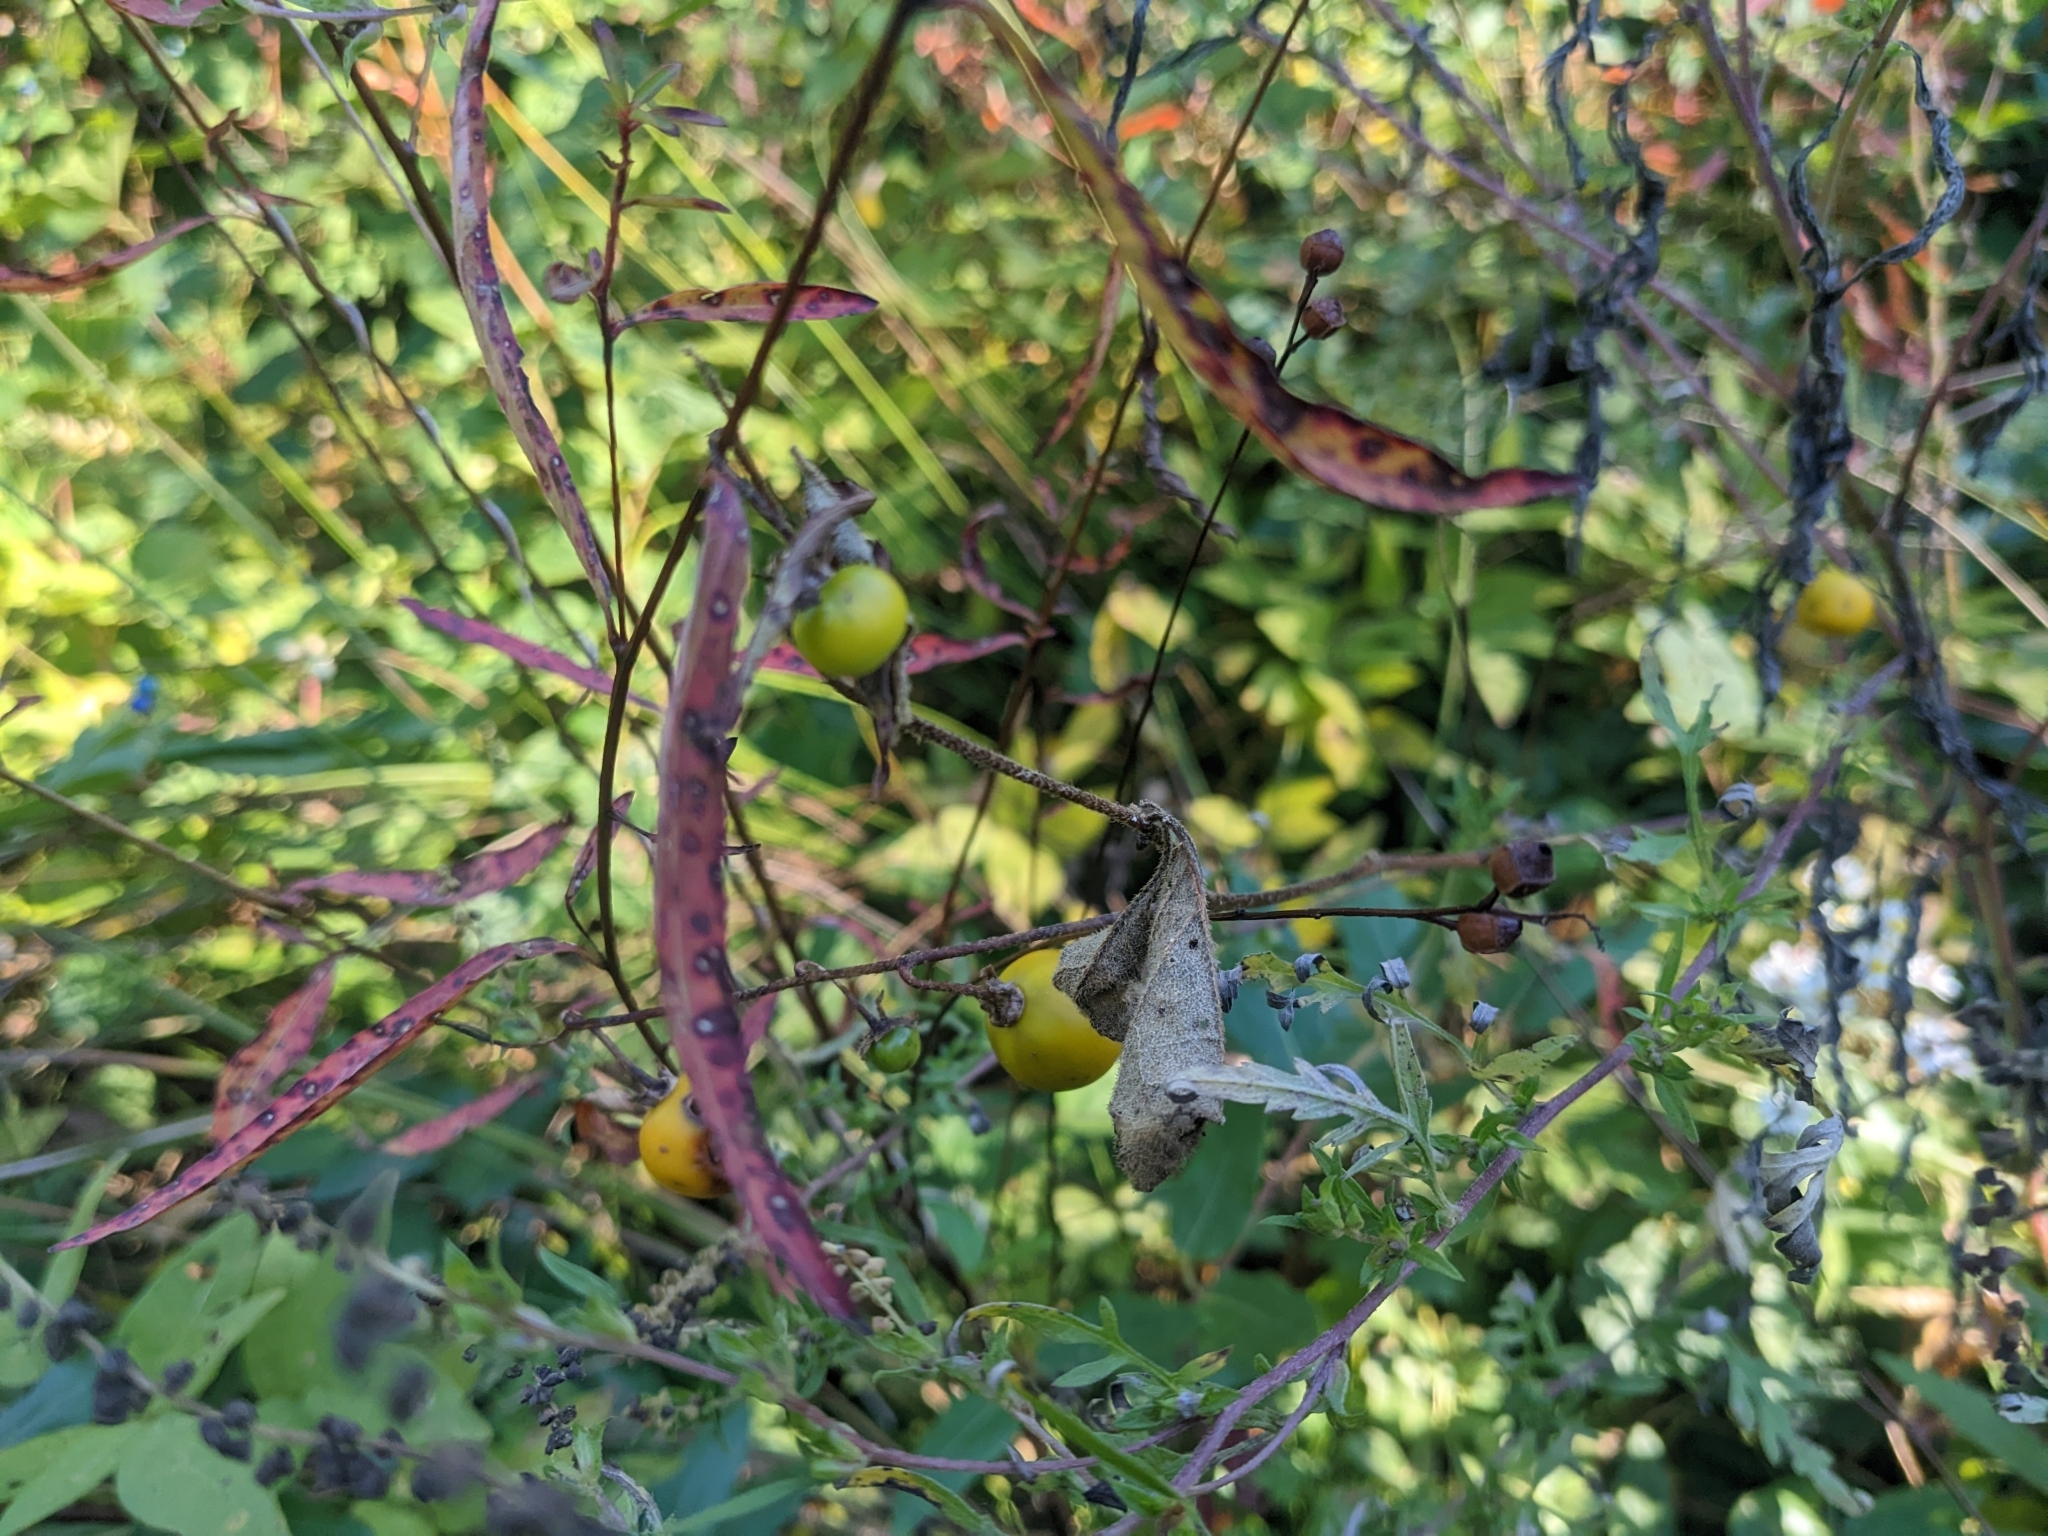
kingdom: Plantae
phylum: Tracheophyta
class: Magnoliopsida
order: Solanales
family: Solanaceae
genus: Solanum
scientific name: Solanum carolinense
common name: Horse-nettle
